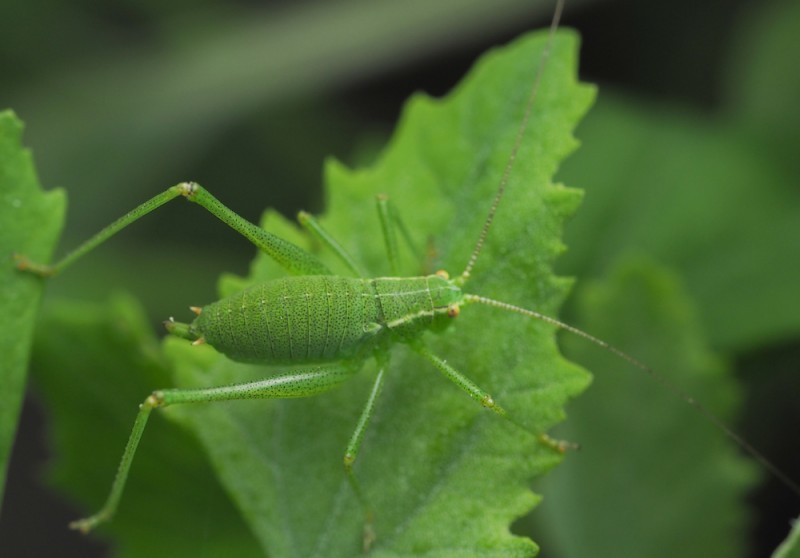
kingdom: Animalia
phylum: Arthropoda
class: Insecta
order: Orthoptera
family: Tettigoniidae
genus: Leptophyes
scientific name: Leptophyes punctatissima
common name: Speckled bush-cricket
